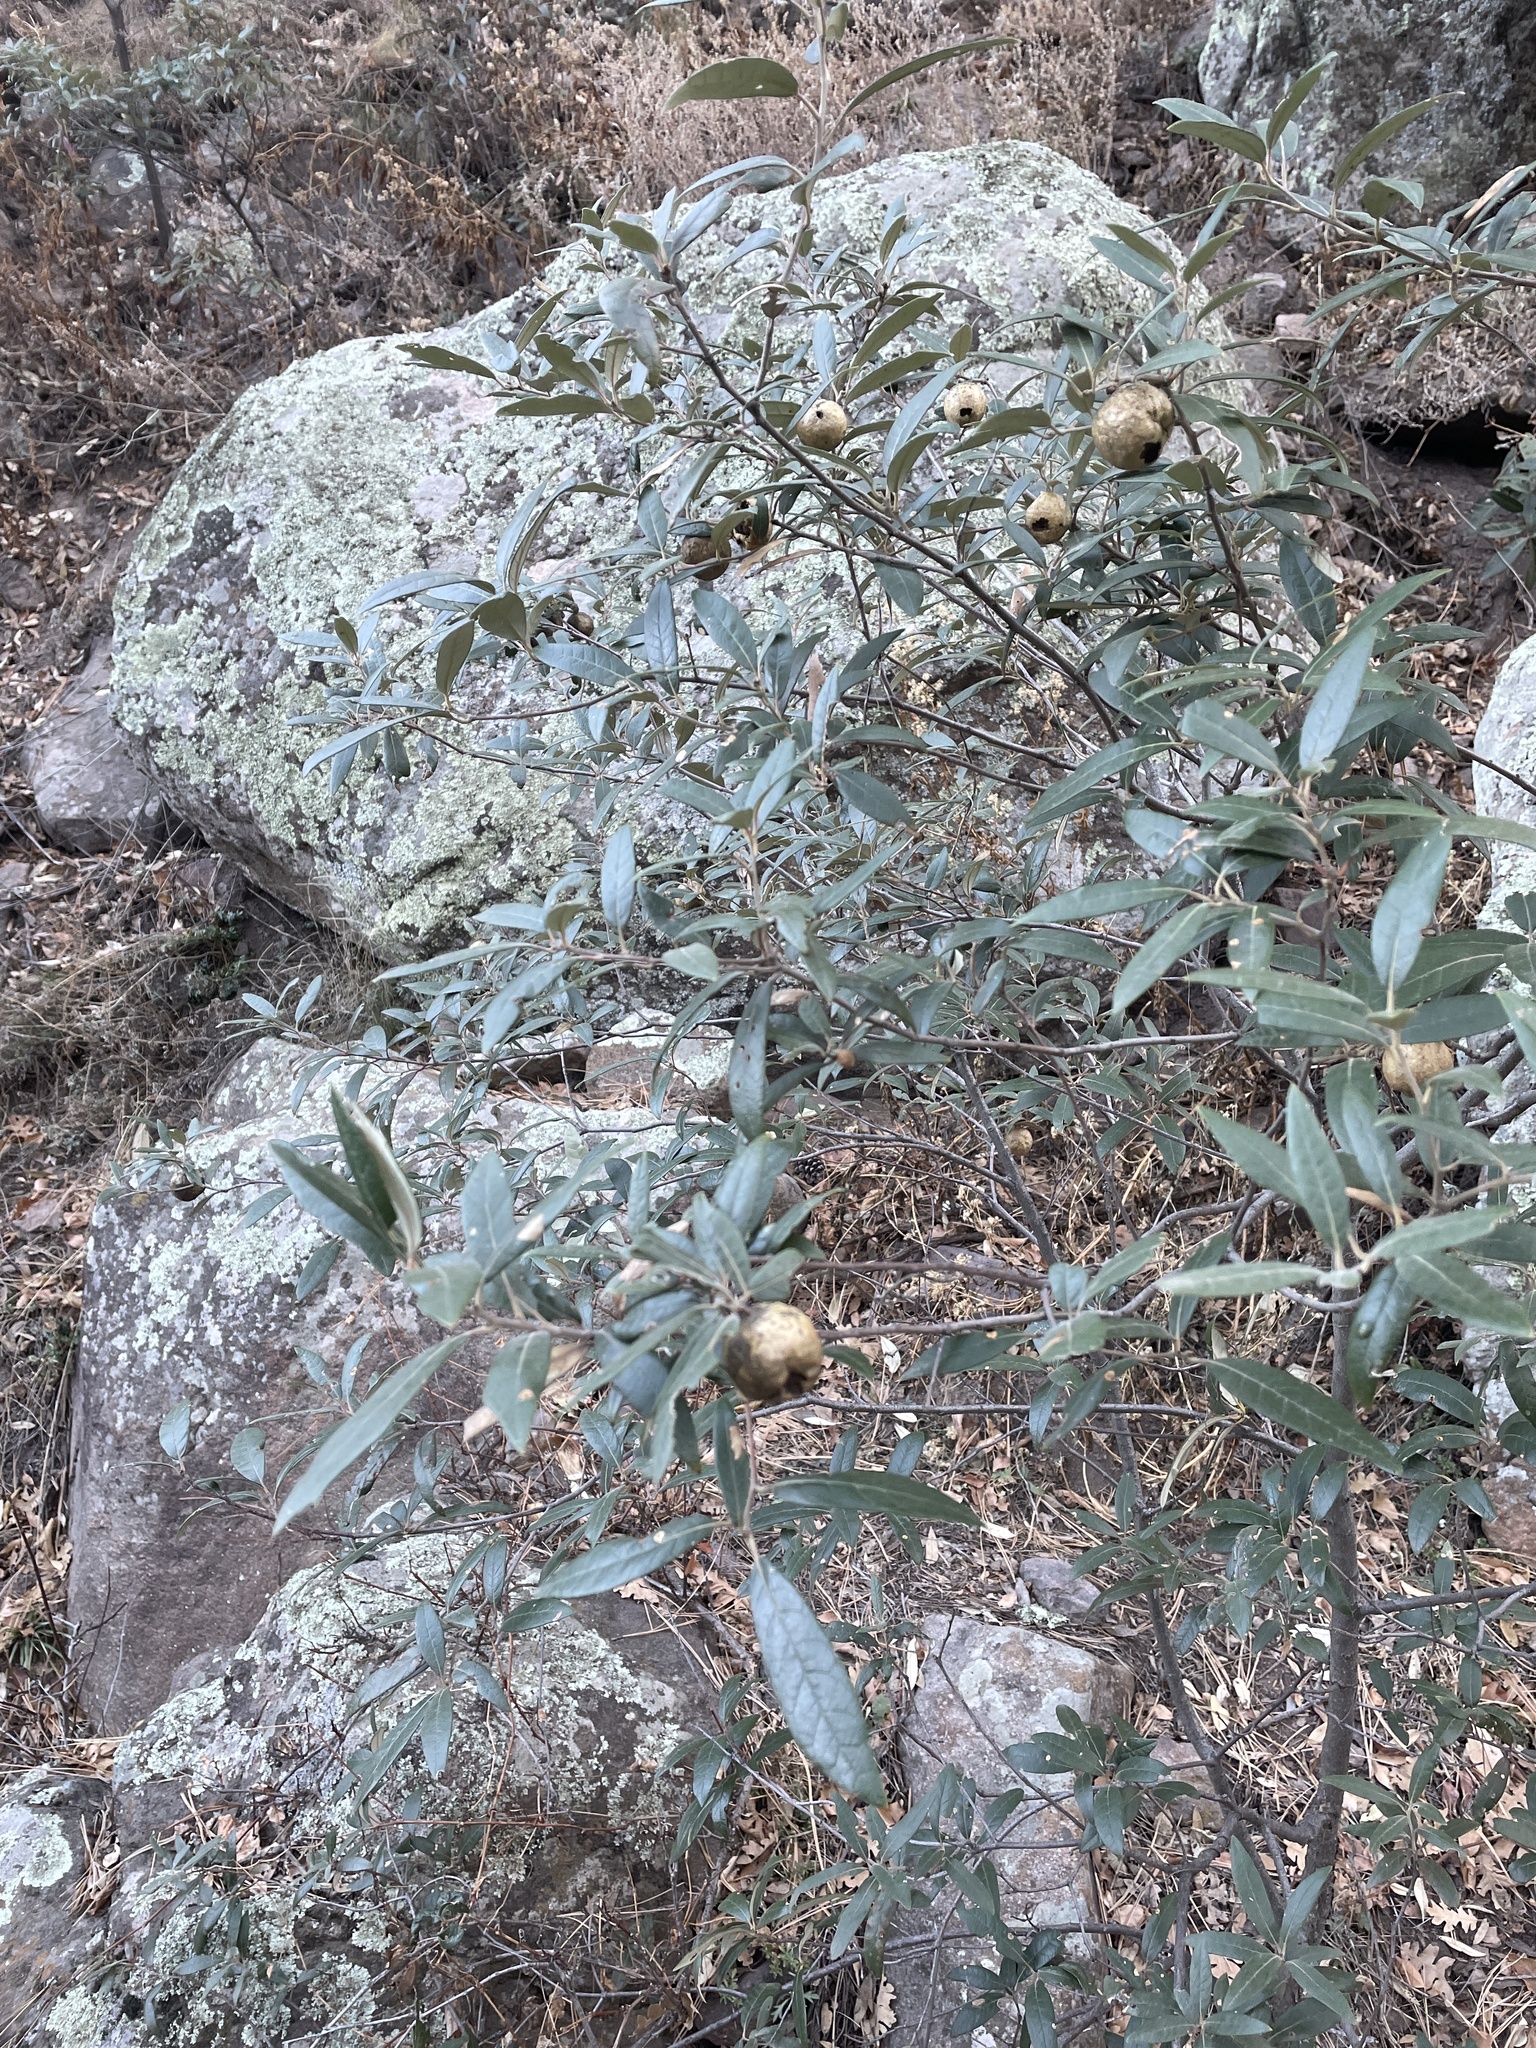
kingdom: Animalia
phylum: Arthropoda
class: Insecta
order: Hymenoptera
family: Cynipidae
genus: Amphibolips
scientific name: Amphibolips
